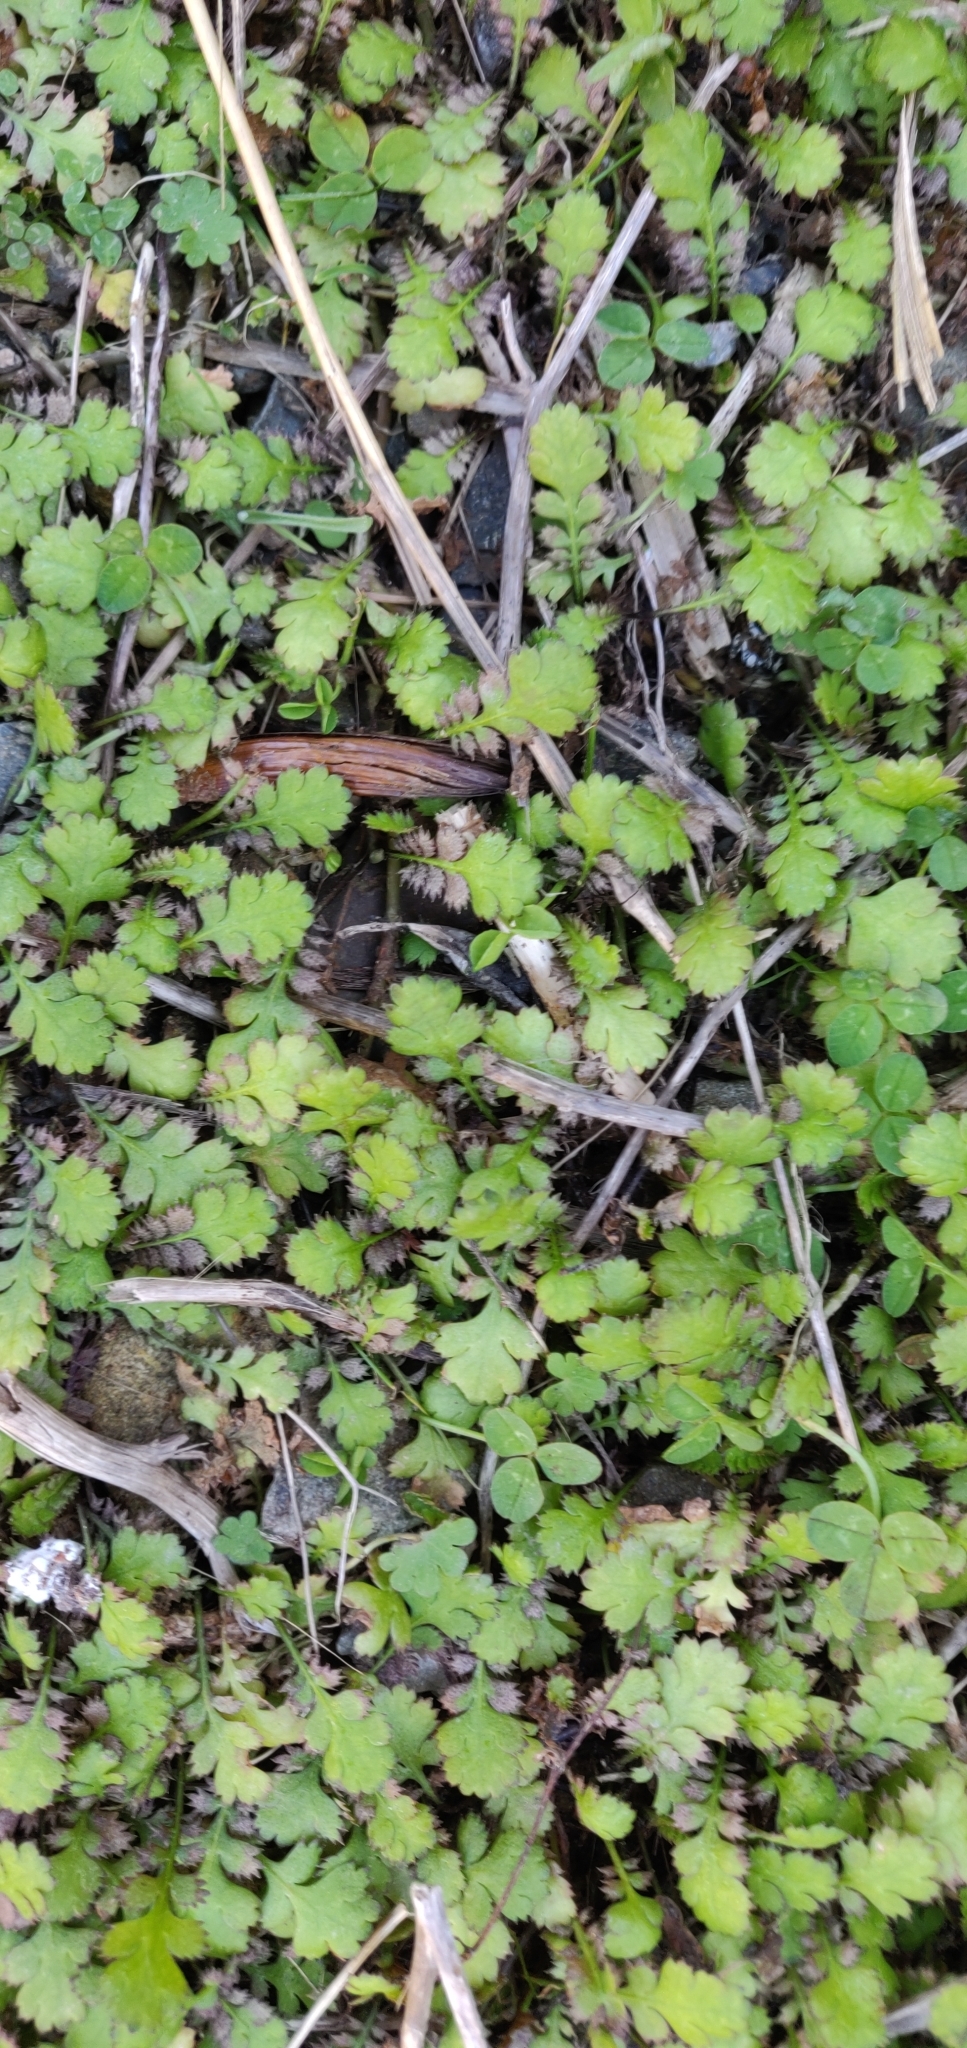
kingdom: Plantae
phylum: Tracheophyta
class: Magnoliopsida
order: Asterales
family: Asteraceae
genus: Leptinella
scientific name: Leptinella squalida
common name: New zealand brass-buttons
